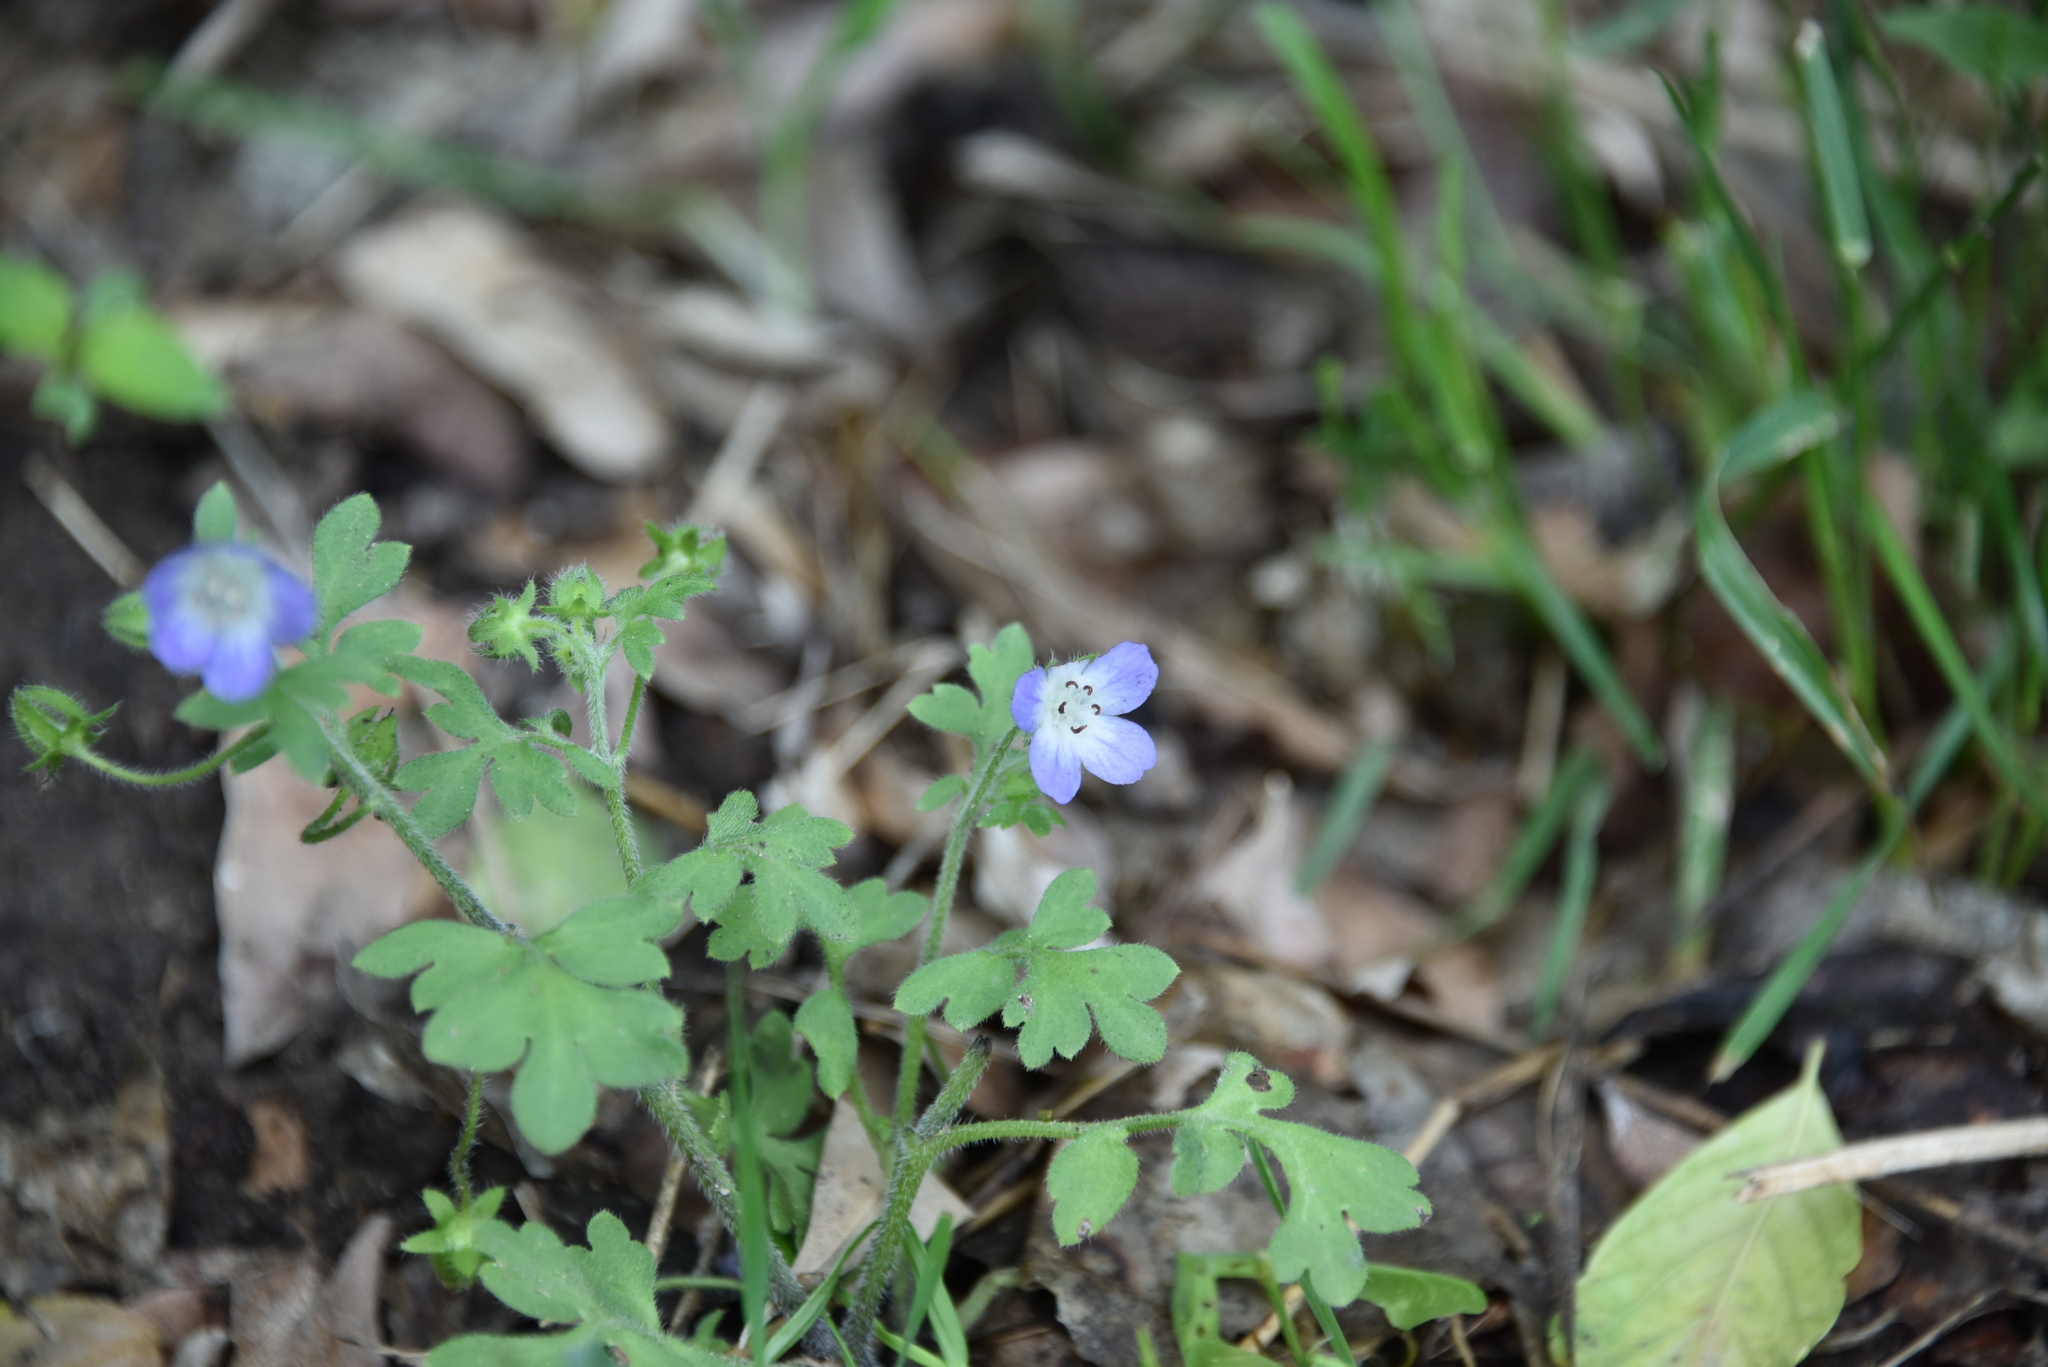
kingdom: Plantae
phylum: Tracheophyta
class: Magnoliopsida
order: Boraginales
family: Hydrophyllaceae
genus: Nemophila
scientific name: Nemophila phacelioides
